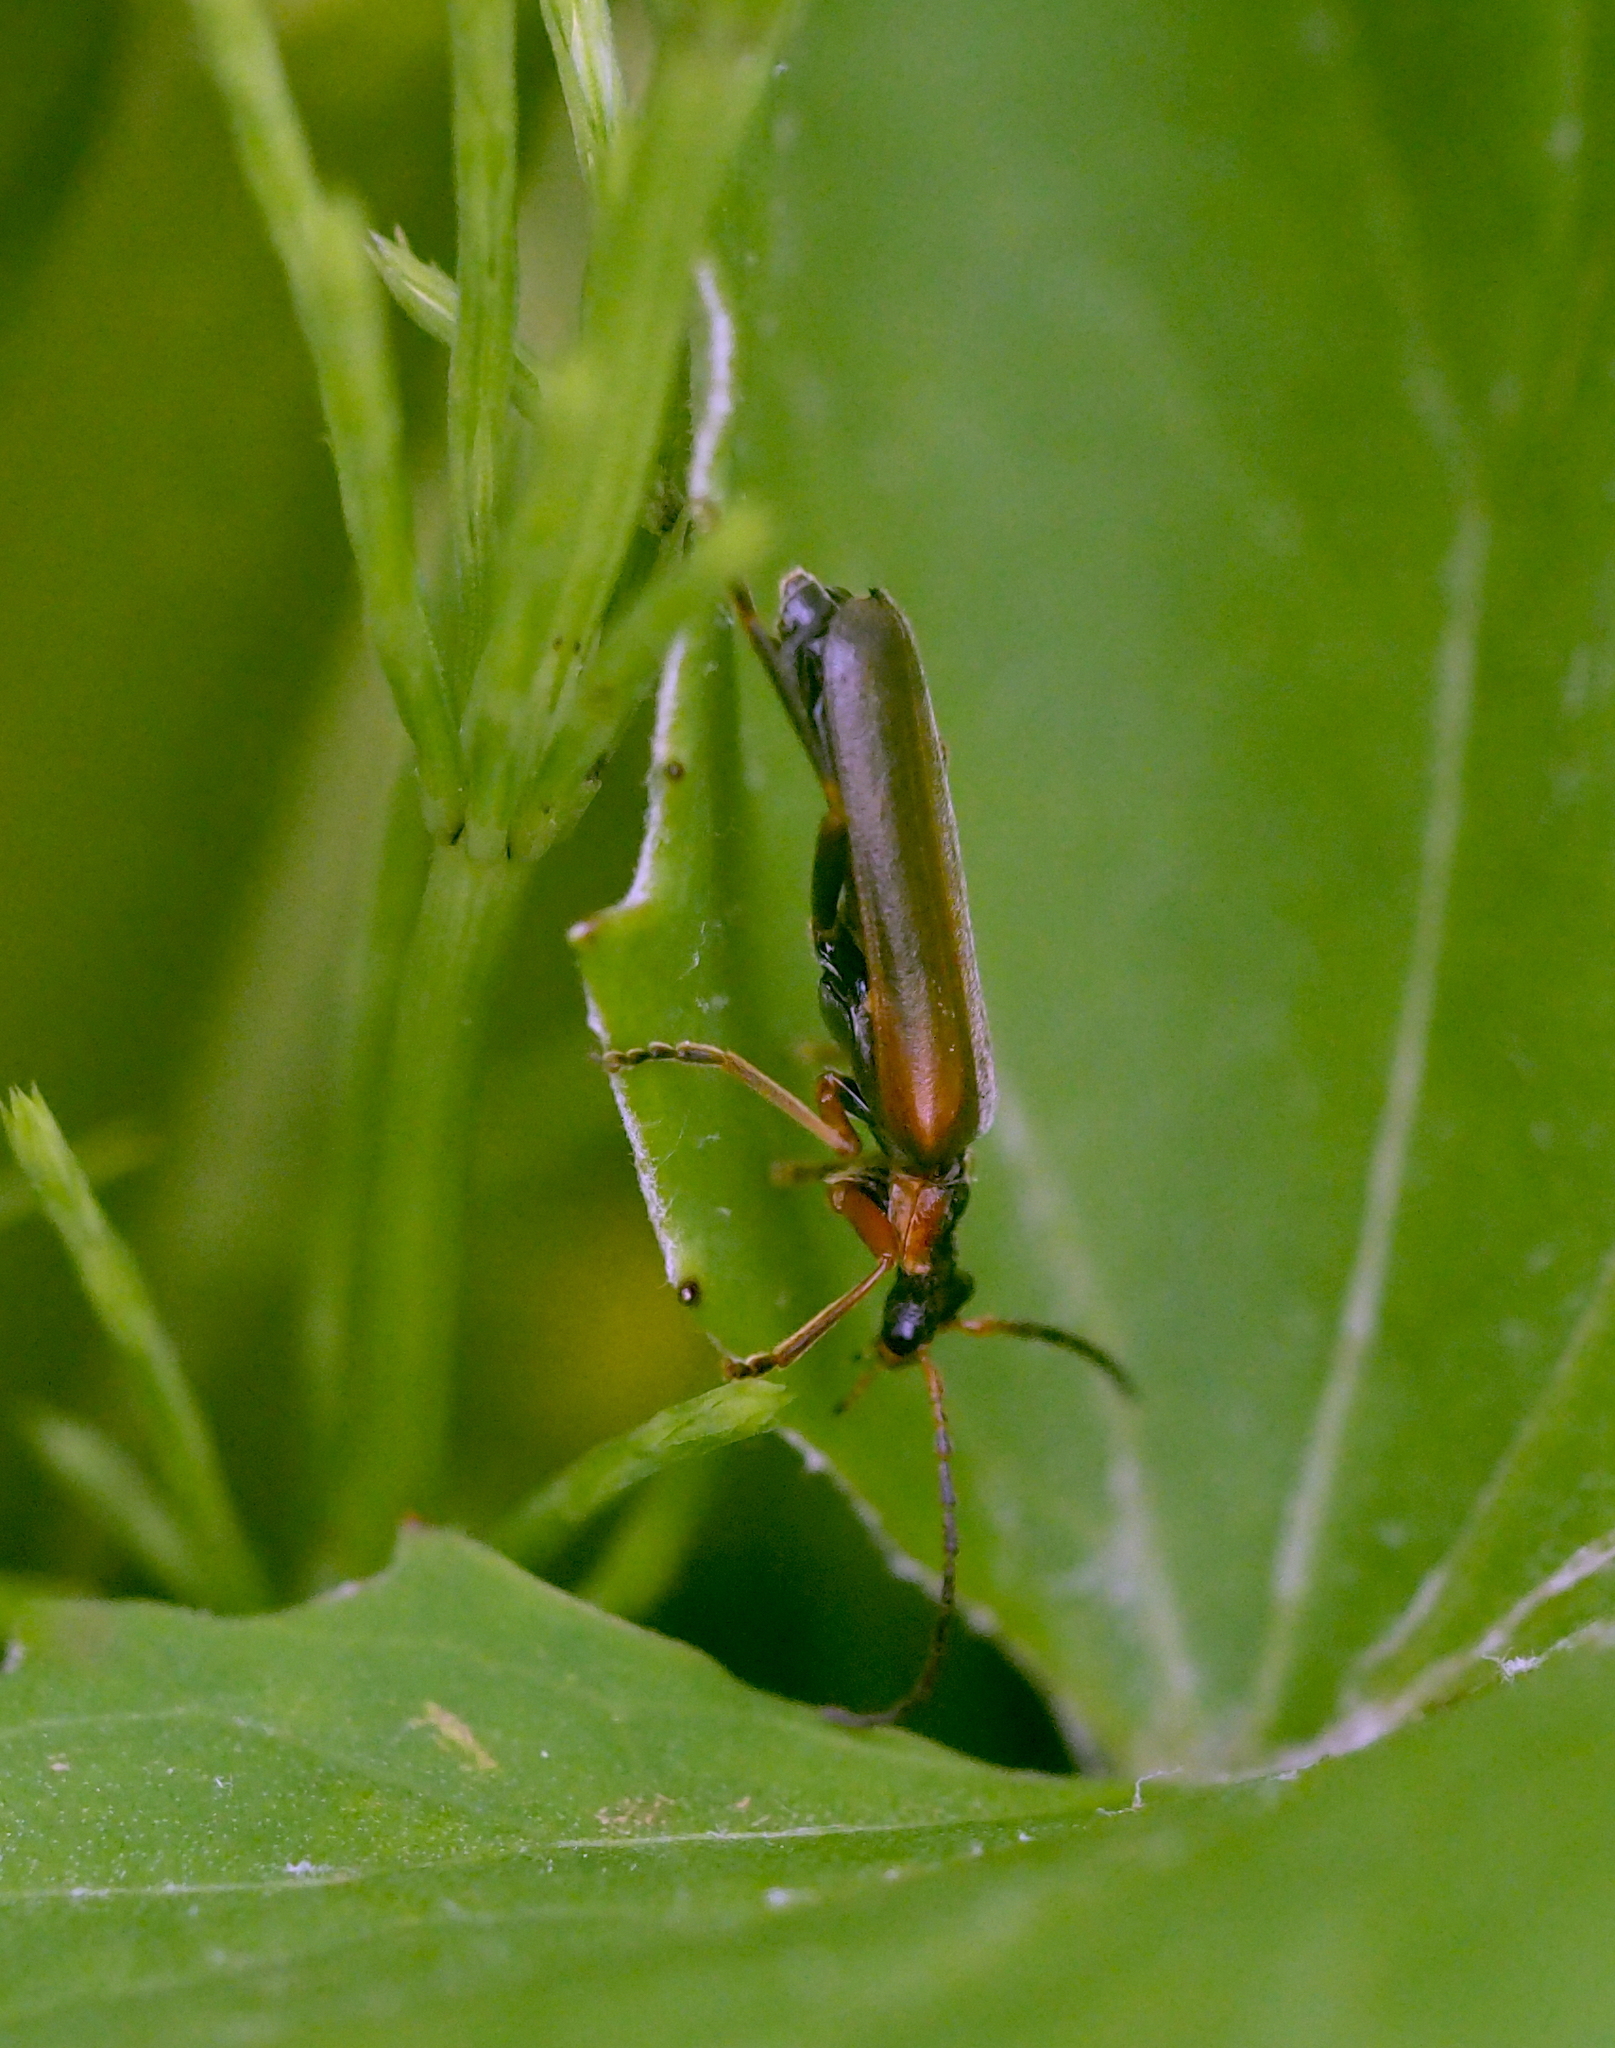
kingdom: Animalia
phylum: Arthropoda
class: Insecta
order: Coleoptera
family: Cantharidae
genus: Podabrus
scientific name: Podabrus alpinus
